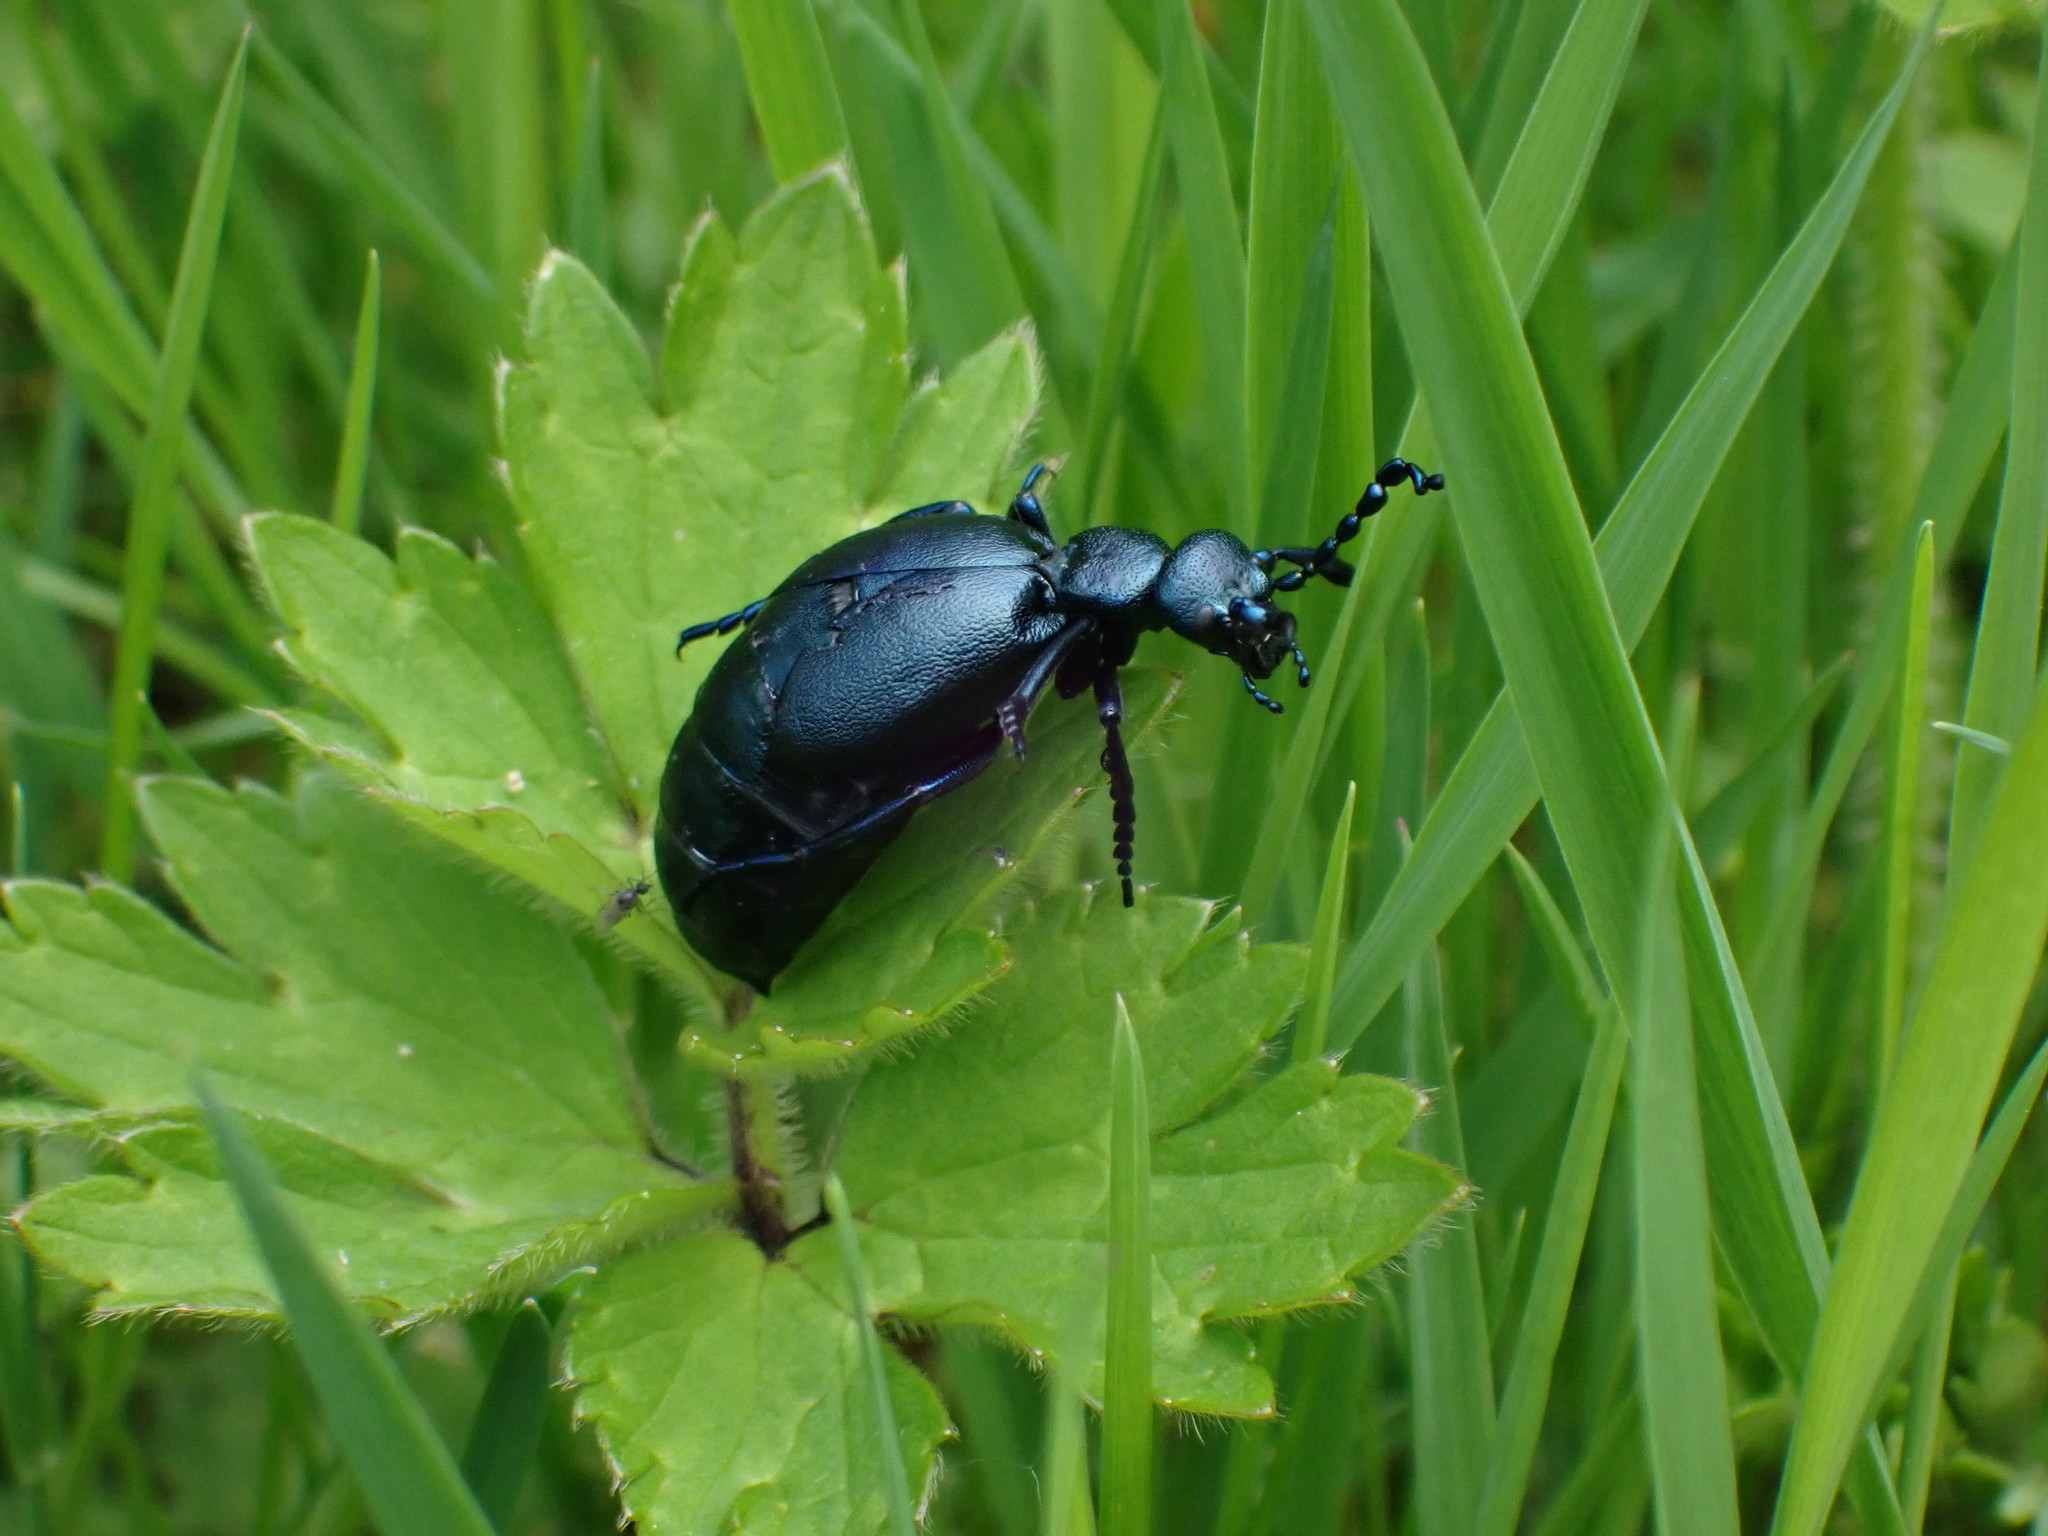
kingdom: Animalia
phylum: Arthropoda
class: Insecta
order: Coleoptera
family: Meloidae
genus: Meloe
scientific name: Meloe violaceus
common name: Violet oil-beetle
